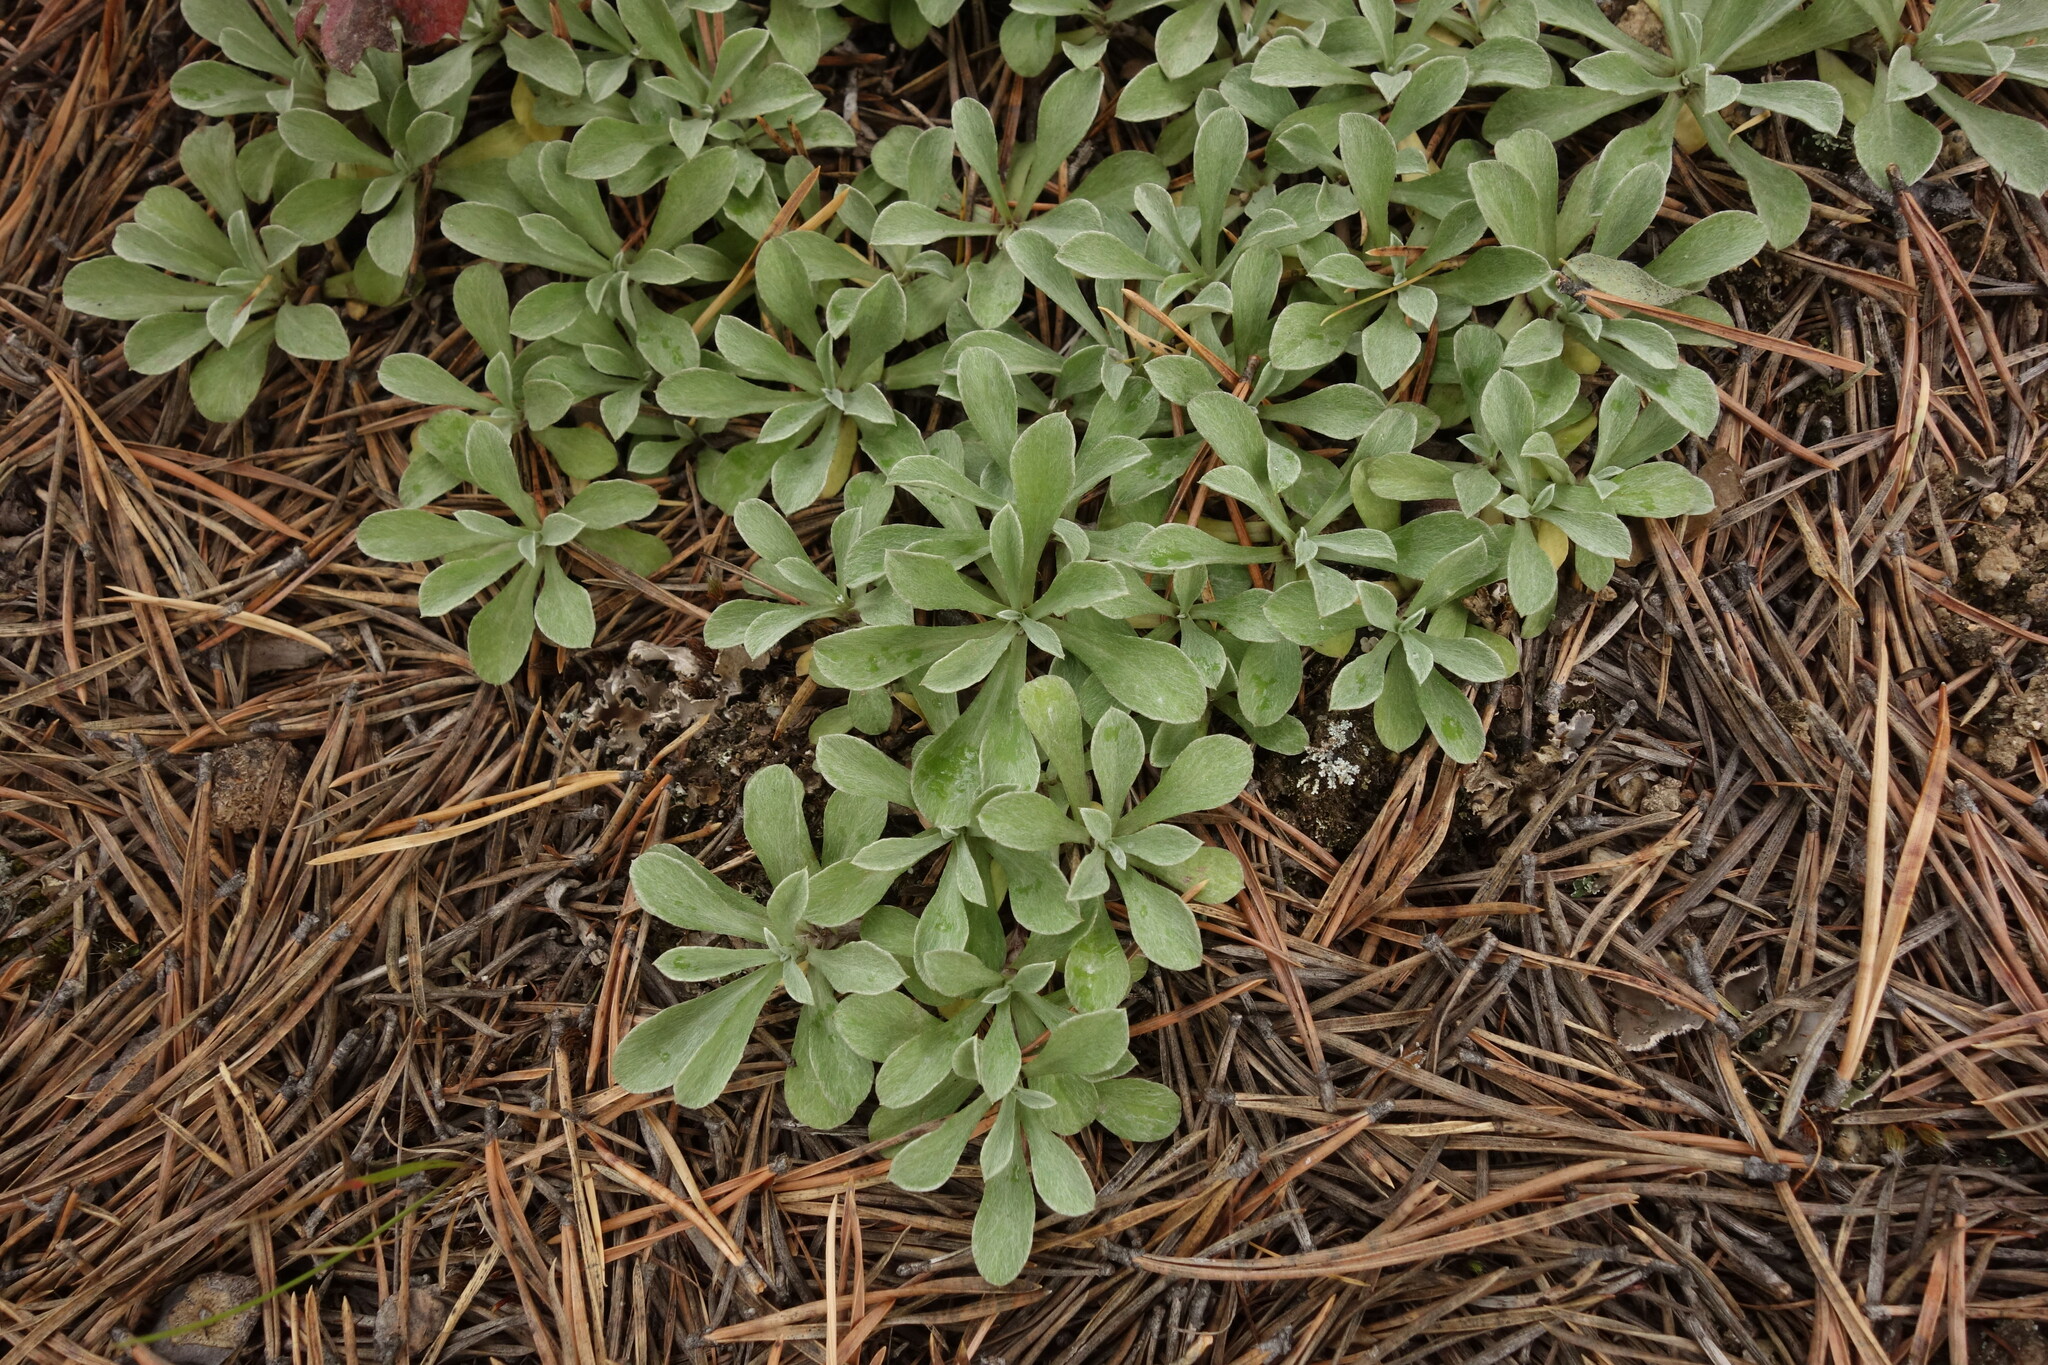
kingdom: Plantae
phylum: Tracheophyta
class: Magnoliopsida
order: Asterales
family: Asteraceae
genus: Antennaria
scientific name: Antennaria dioica
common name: Mountain everlasting
